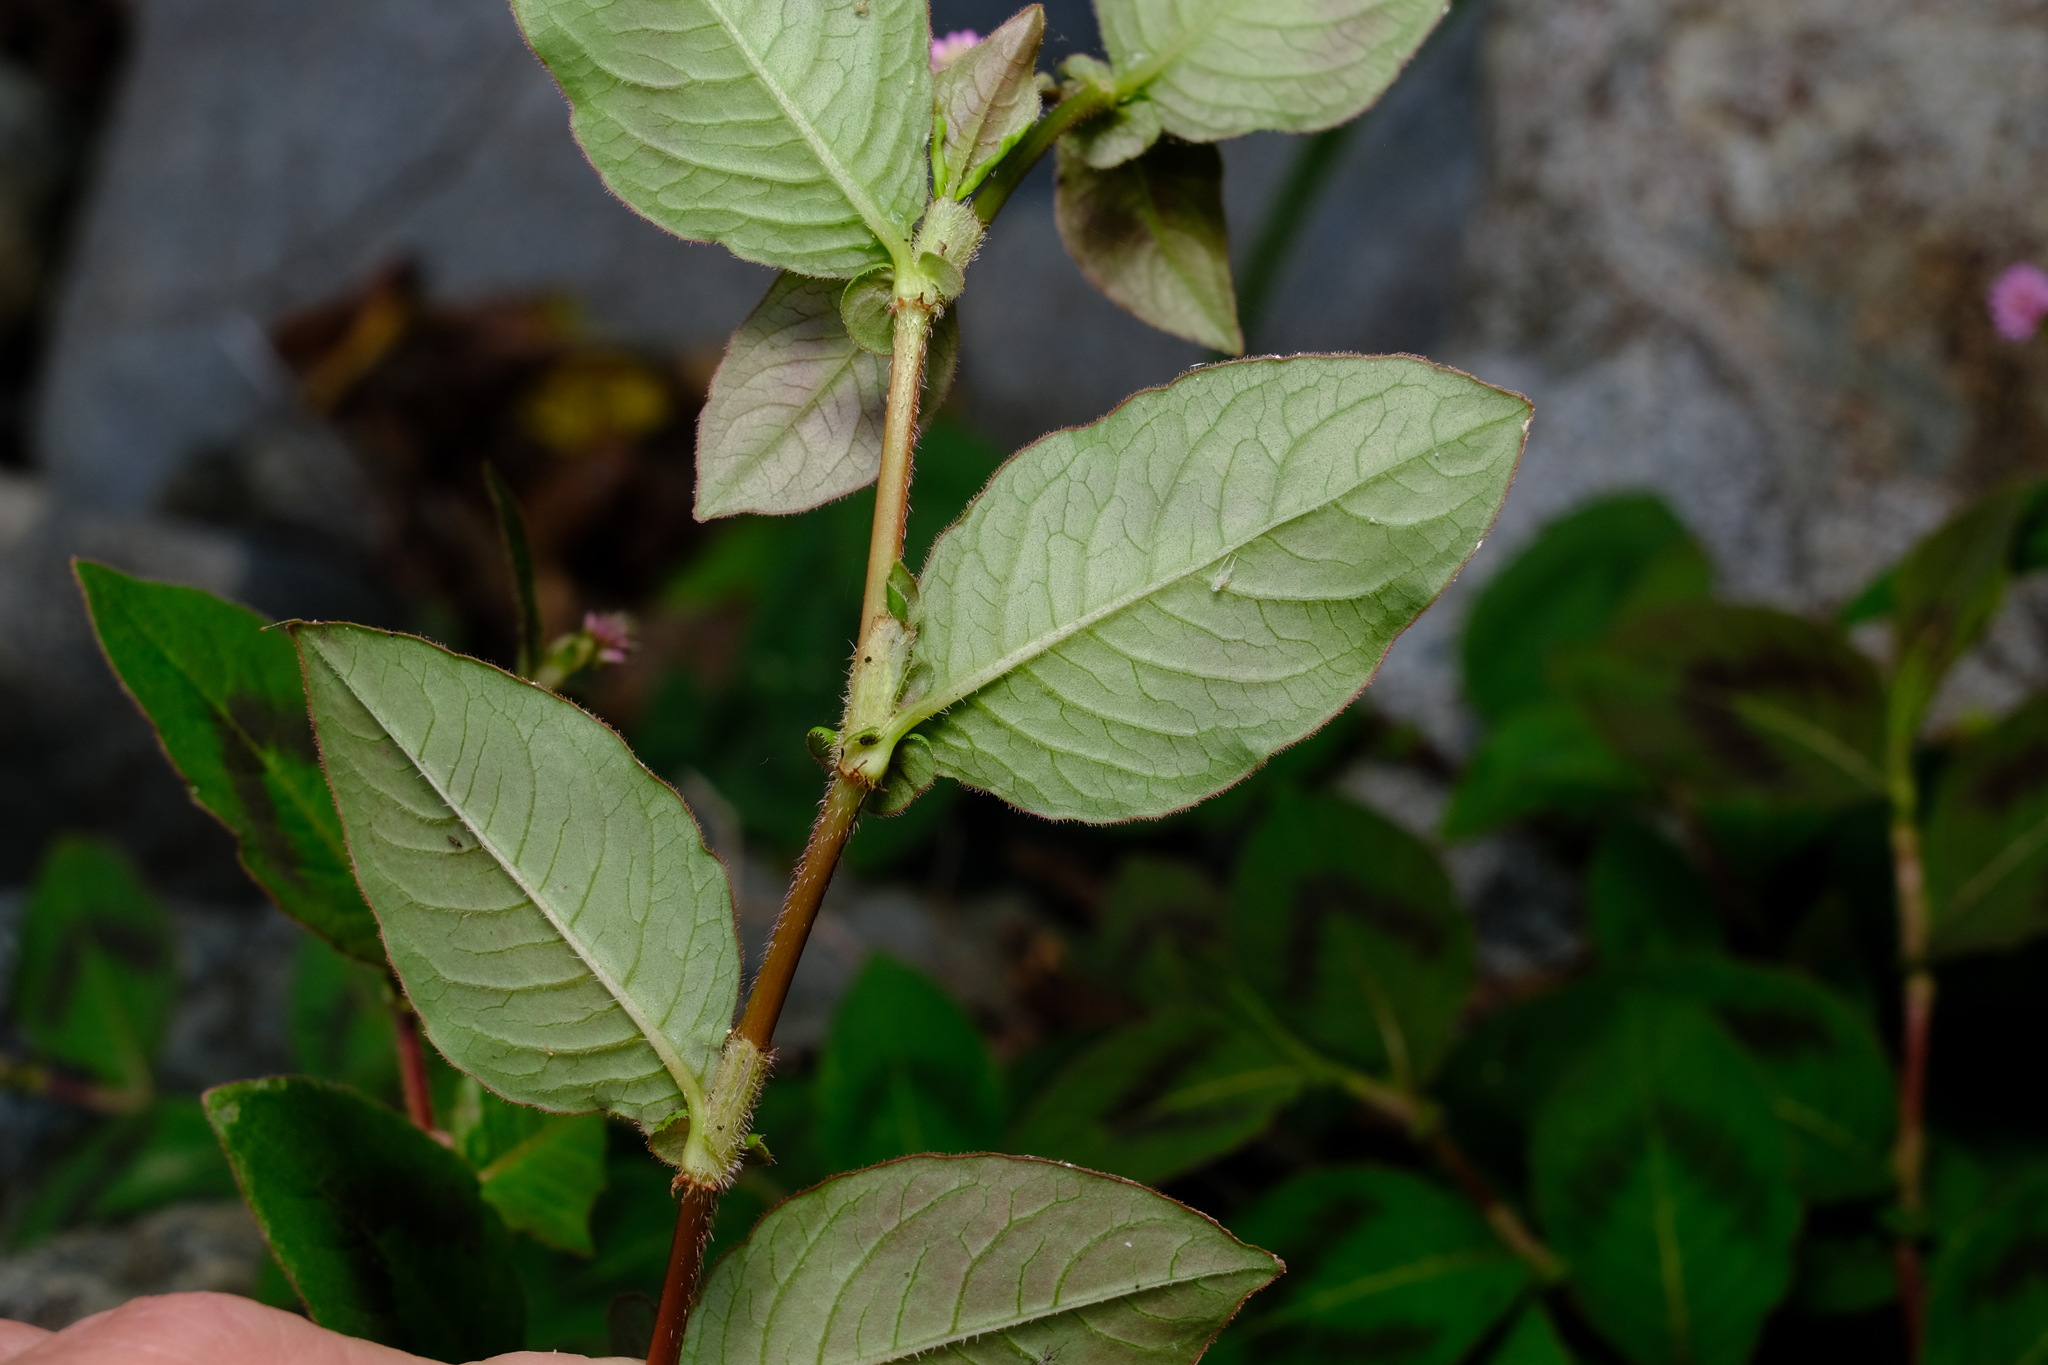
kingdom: Plantae
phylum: Tracheophyta
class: Magnoliopsida
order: Caryophyllales
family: Polygonaceae
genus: Persicaria
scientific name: Persicaria capitata
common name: Pinkhead smartweed
